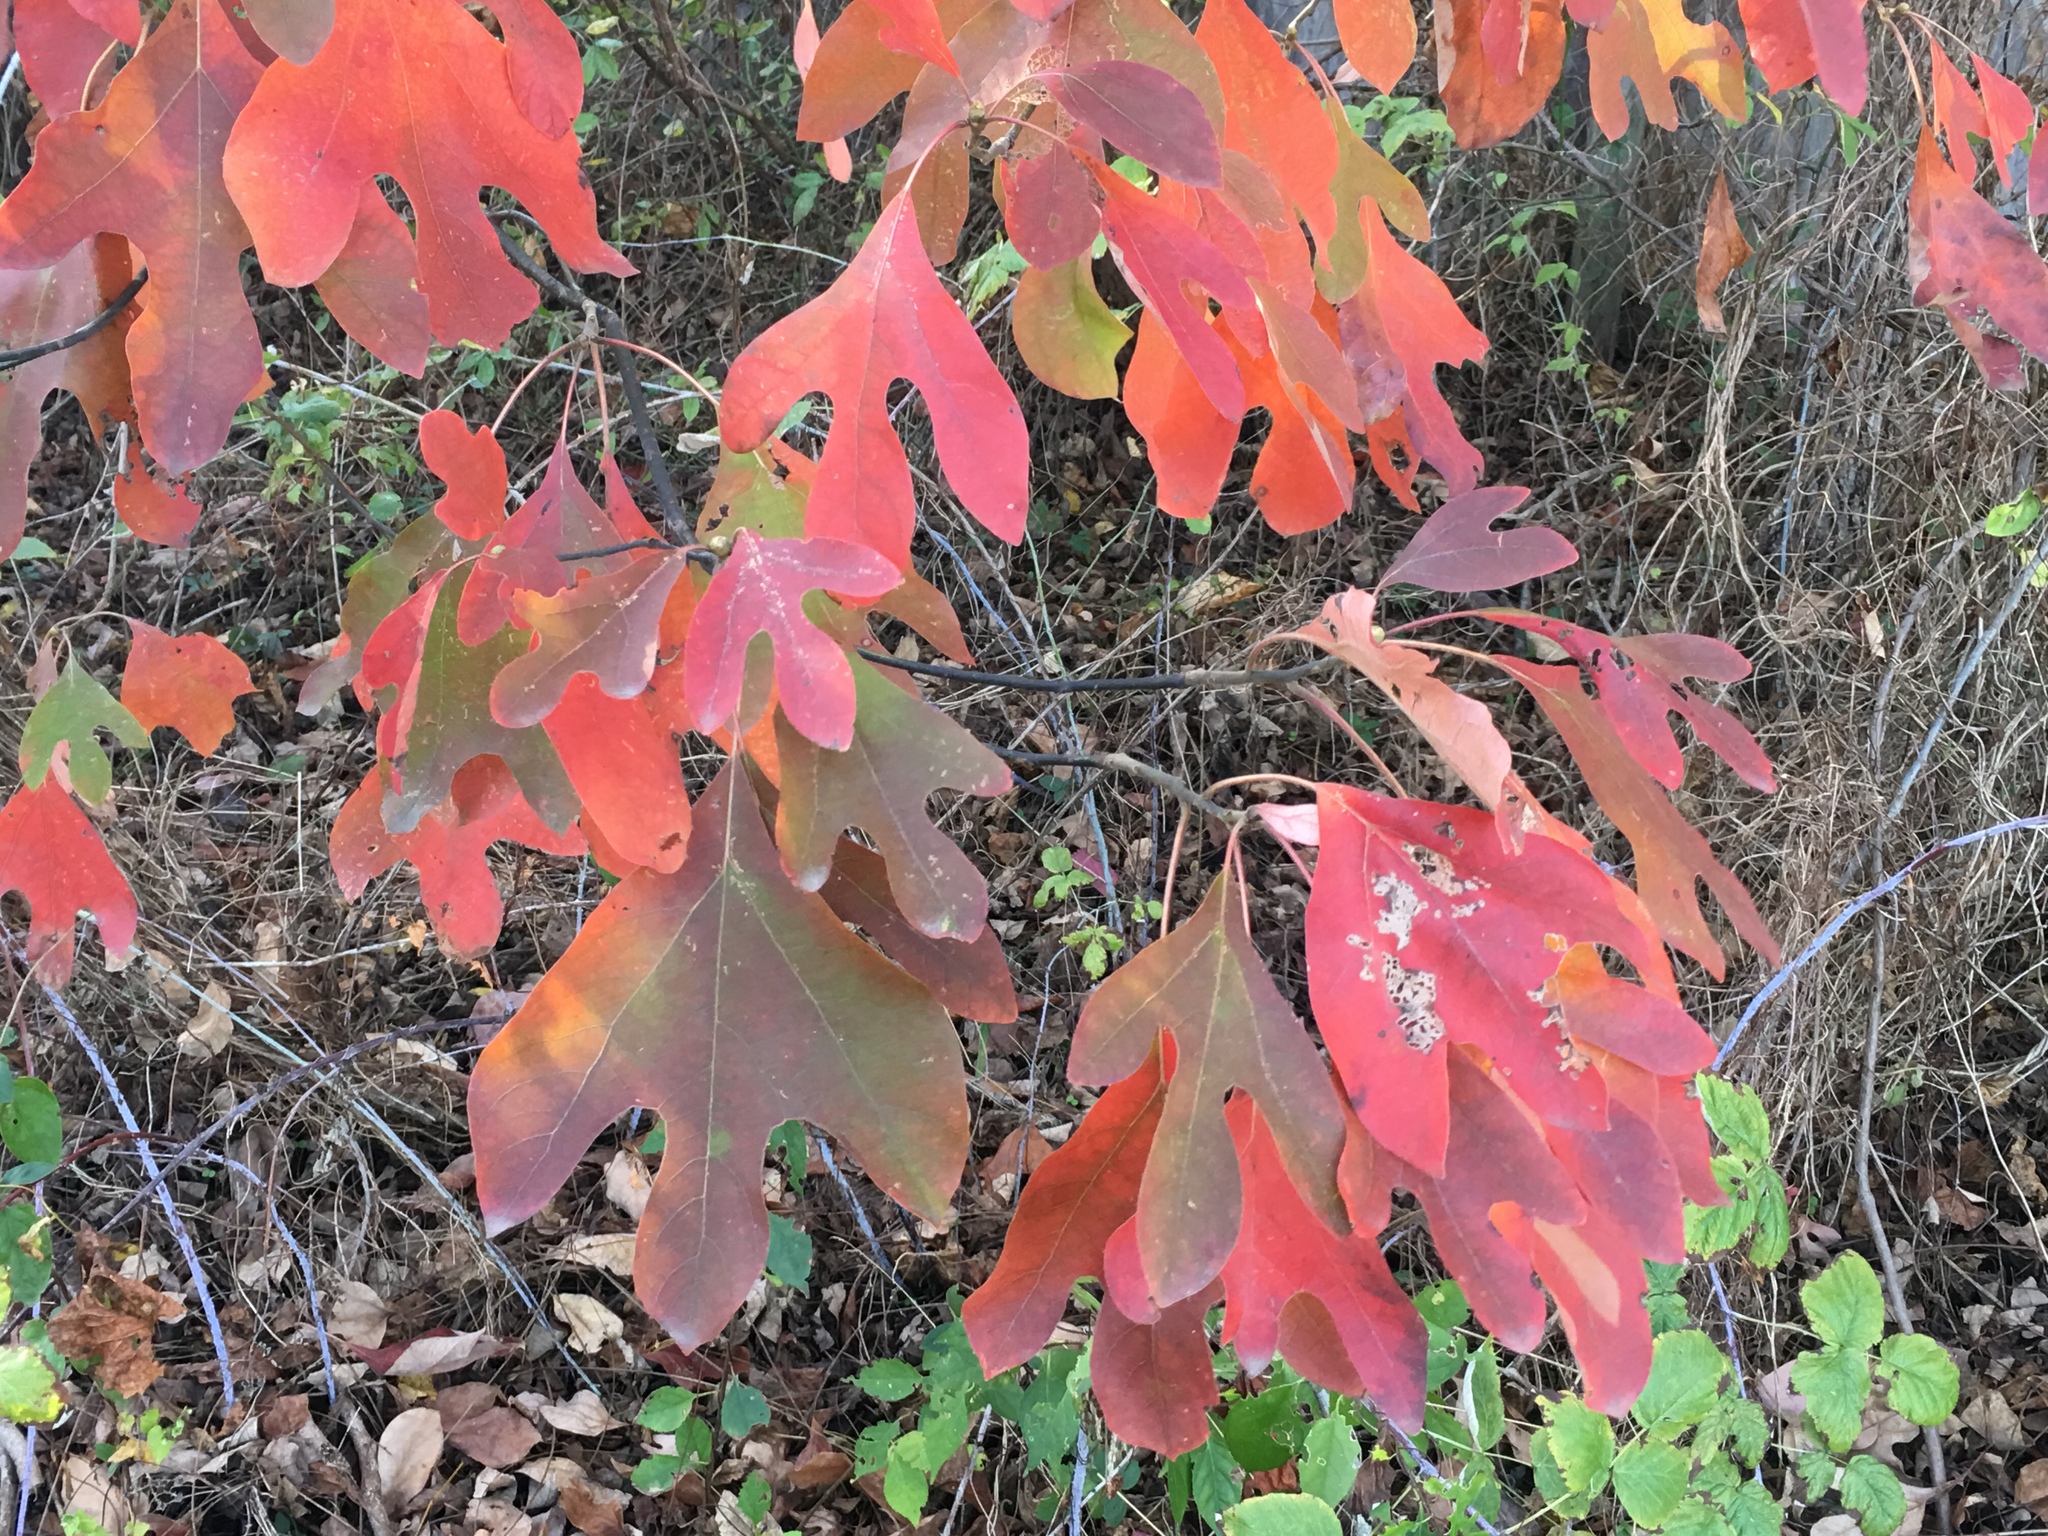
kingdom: Plantae
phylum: Tracheophyta
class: Magnoliopsida
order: Laurales
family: Lauraceae
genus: Sassafras
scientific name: Sassafras albidum
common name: Sassafras
